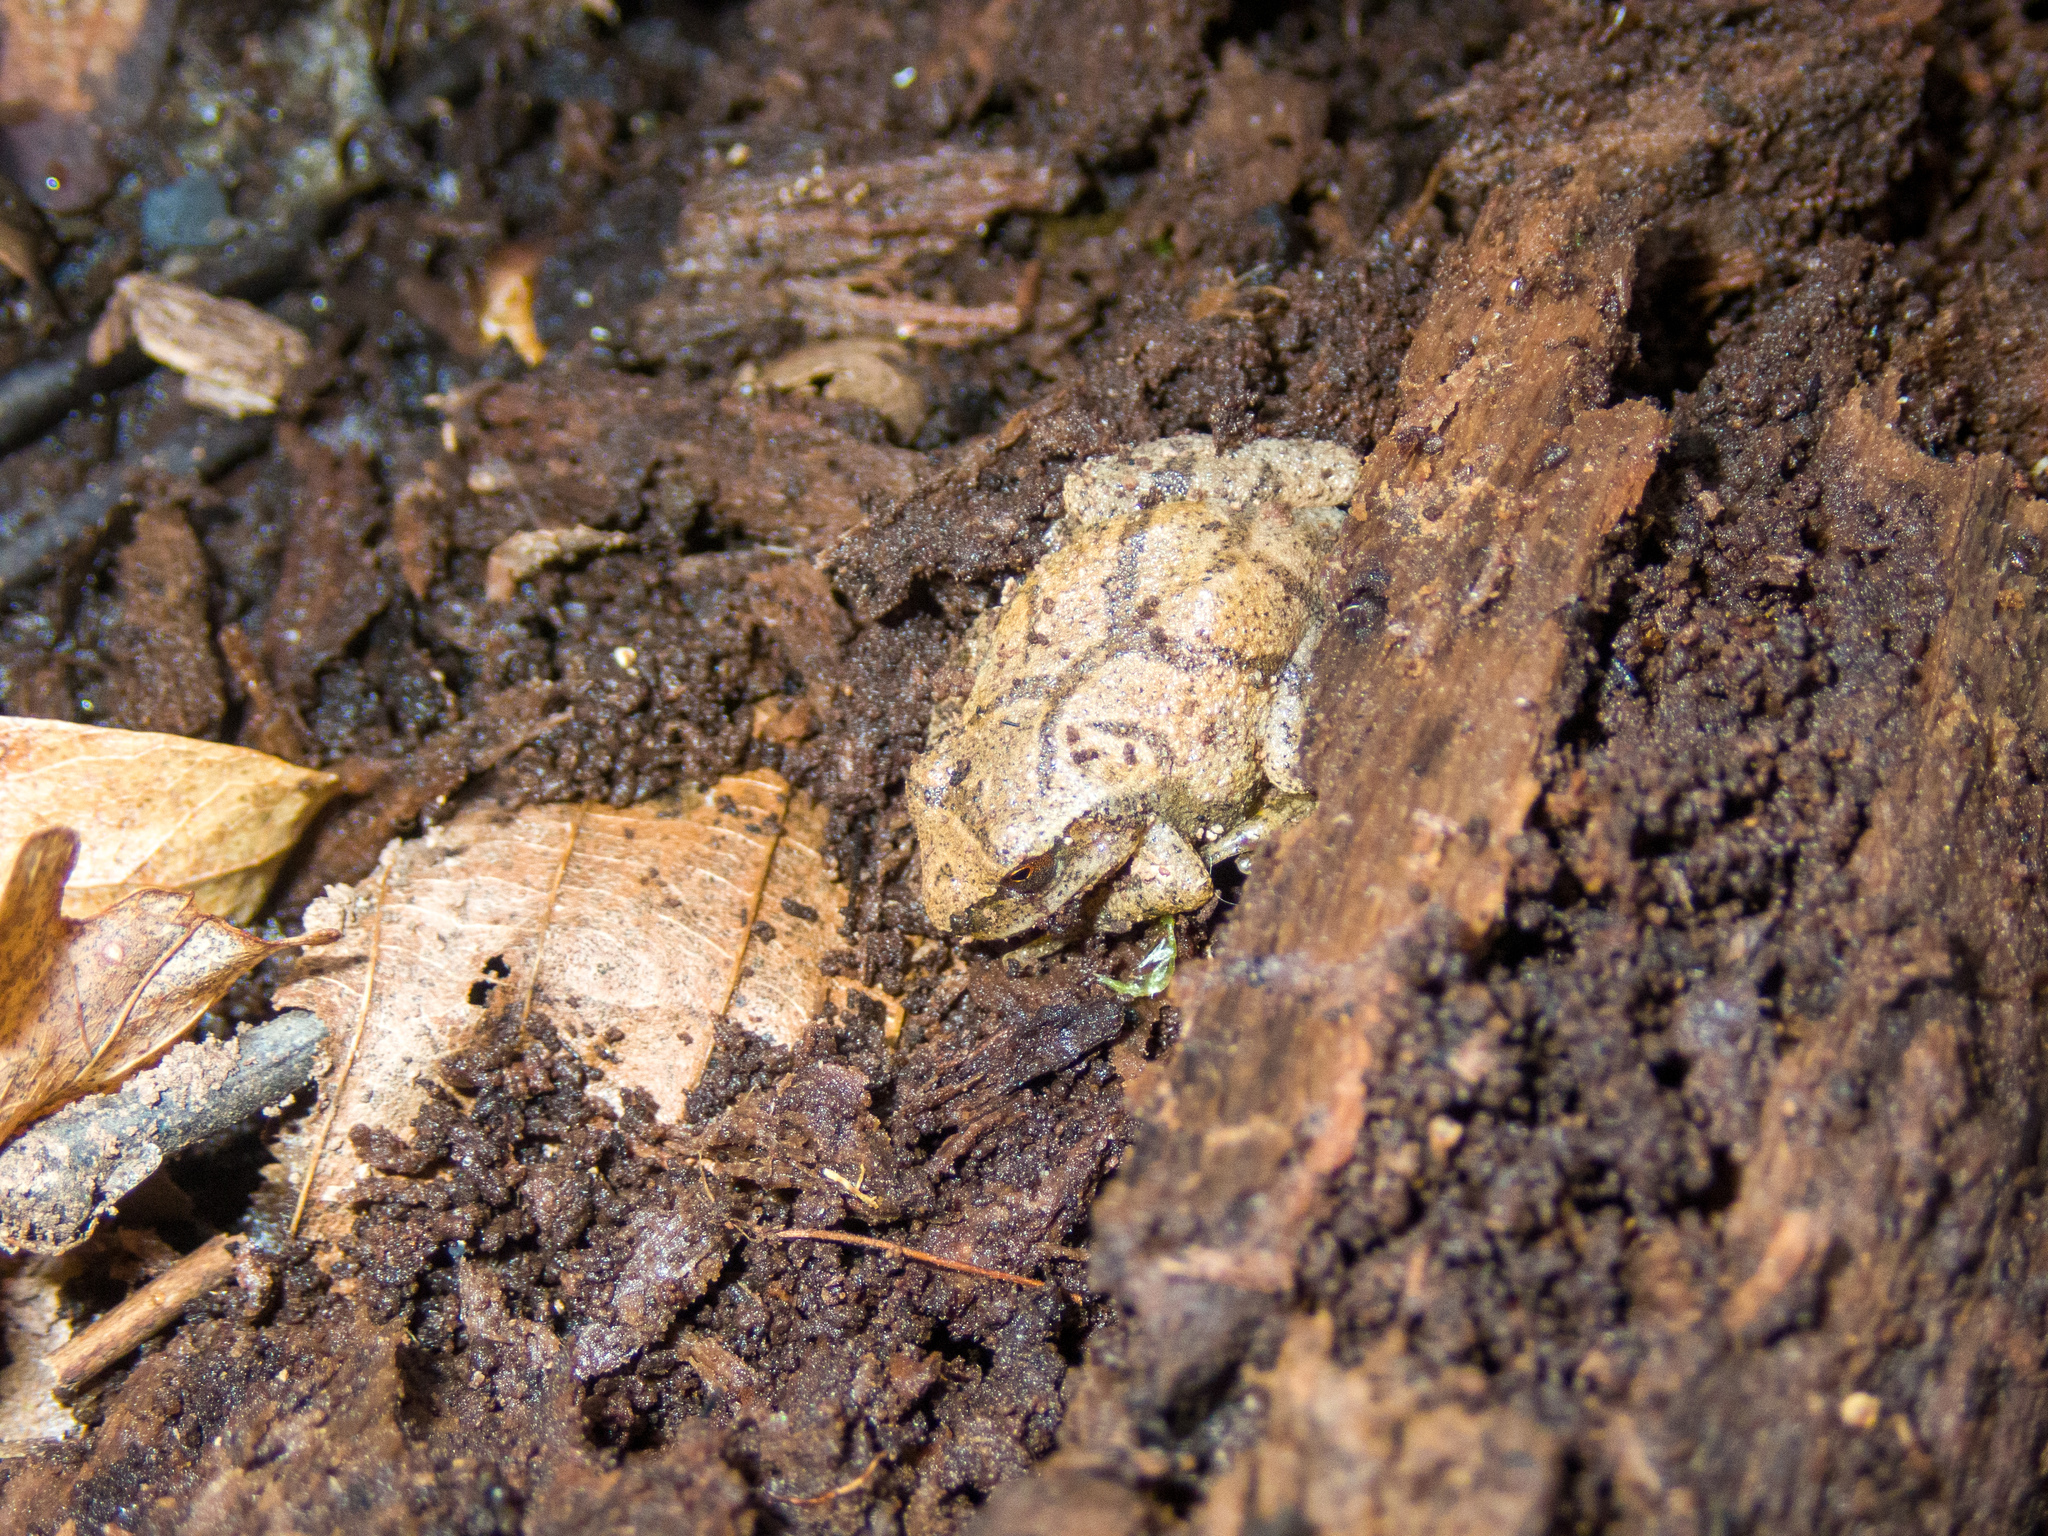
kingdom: Animalia
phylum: Chordata
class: Amphibia
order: Anura
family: Hylidae
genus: Pseudacris
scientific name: Pseudacris crucifer
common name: Spring peeper
